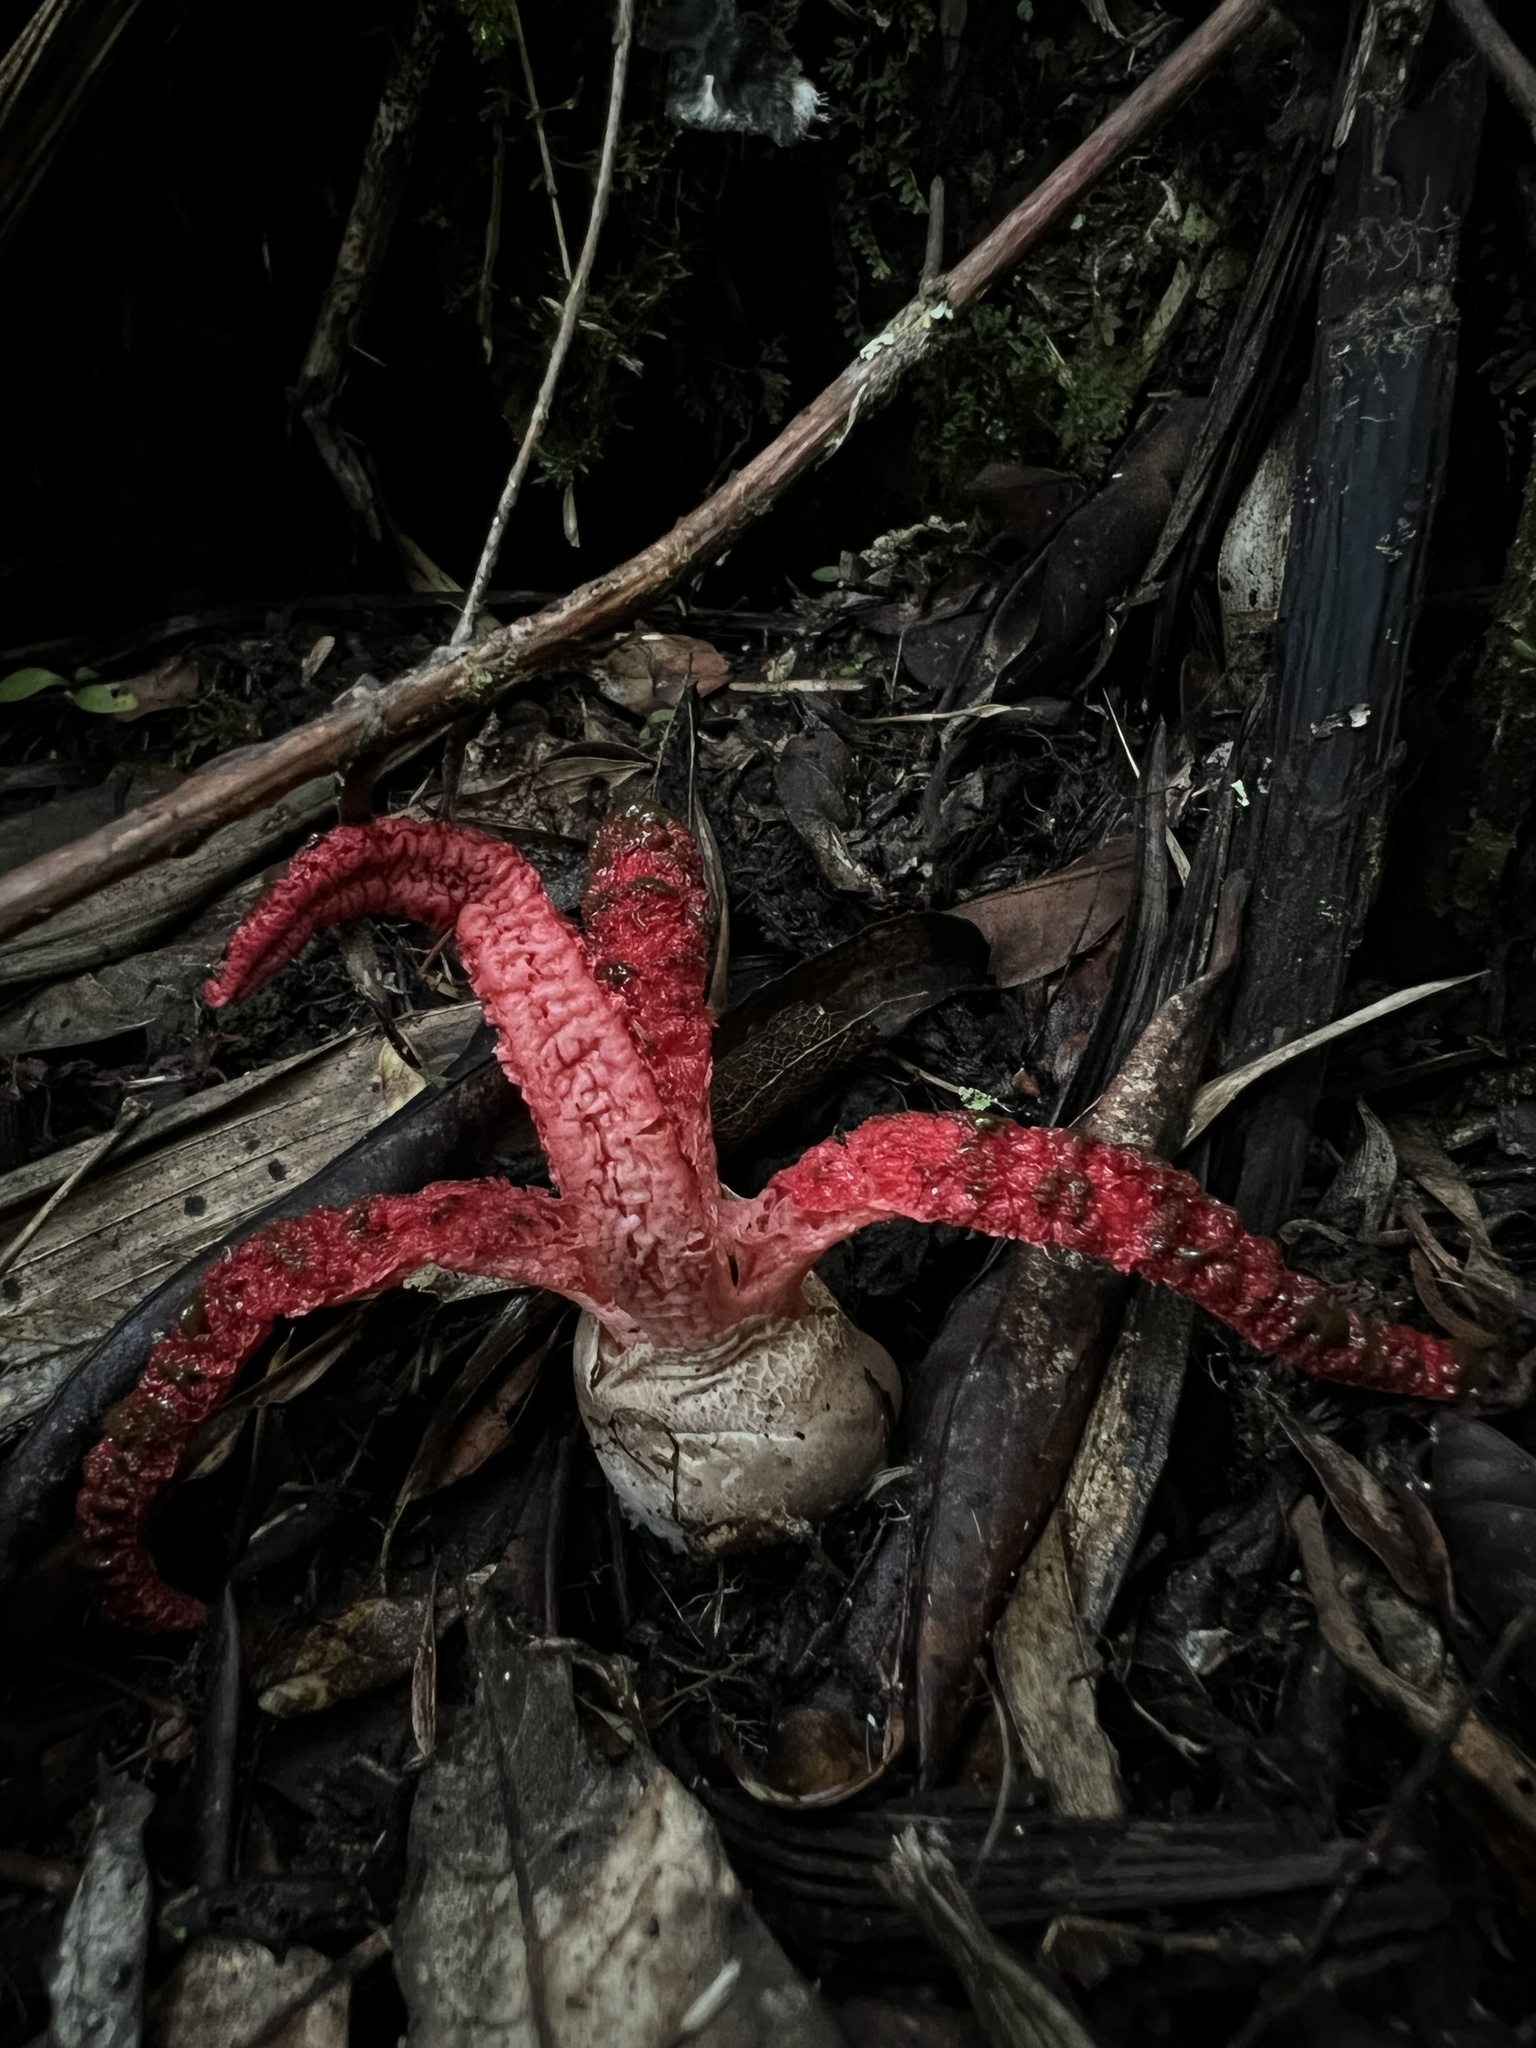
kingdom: Fungi
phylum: Basidiomycota
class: Agaricomycetes
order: Phallales
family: Phallaceae
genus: Clathrus
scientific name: Clathrus archeri
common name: Devil's fingers
